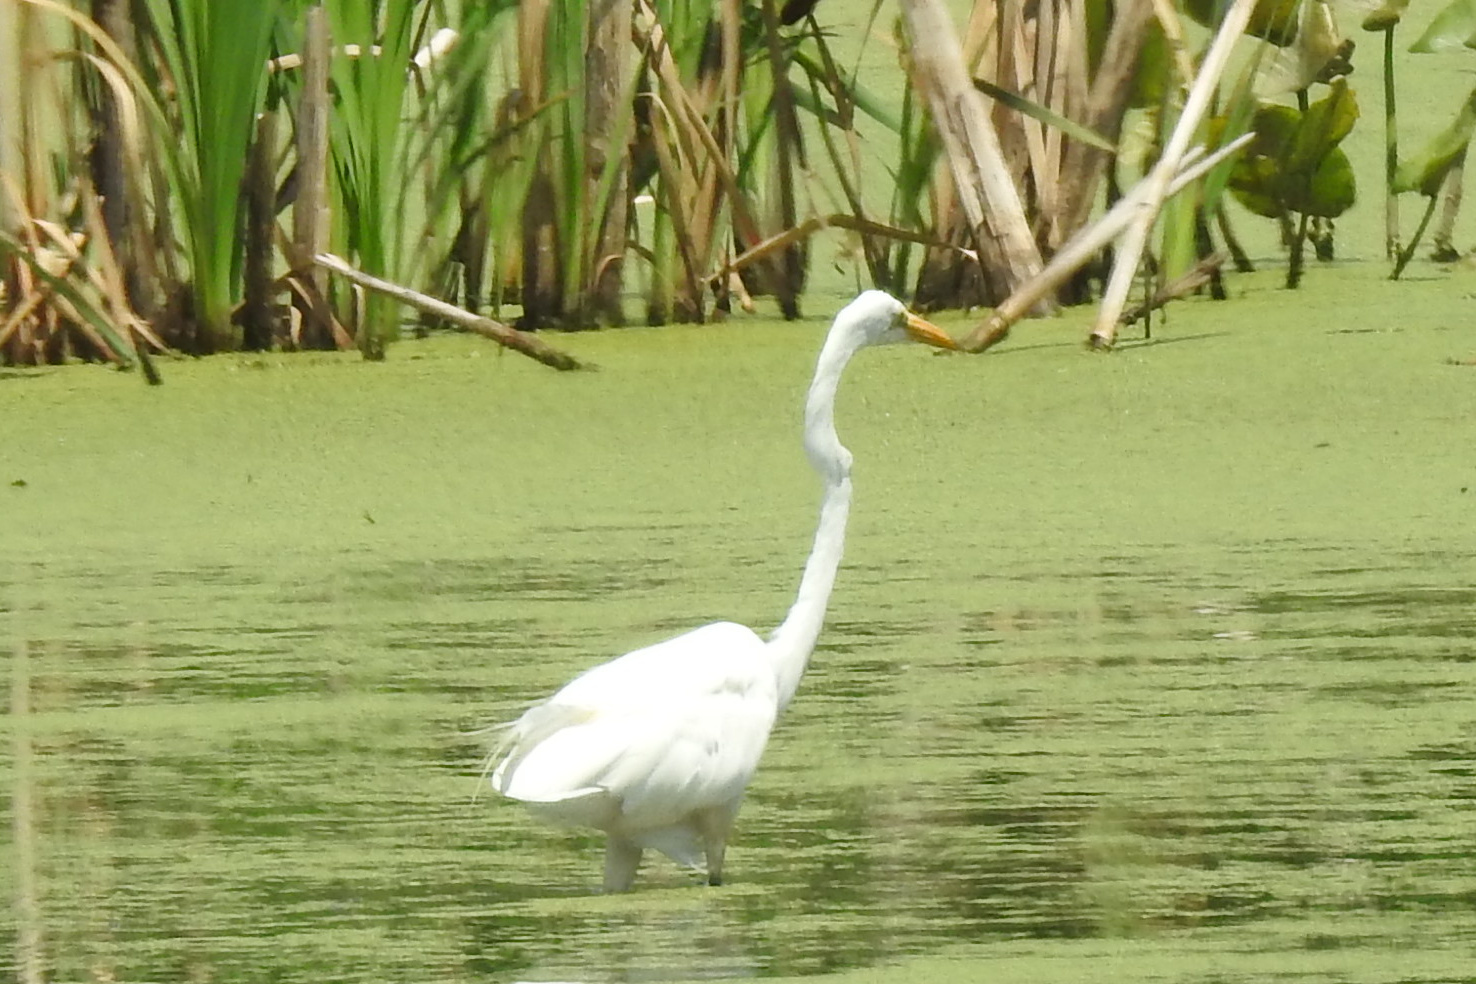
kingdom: Animalia
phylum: Chordata
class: Aves
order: Pelecaniformes
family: Ardeidae
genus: Ardea
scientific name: Ardea alba
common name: Great egret
